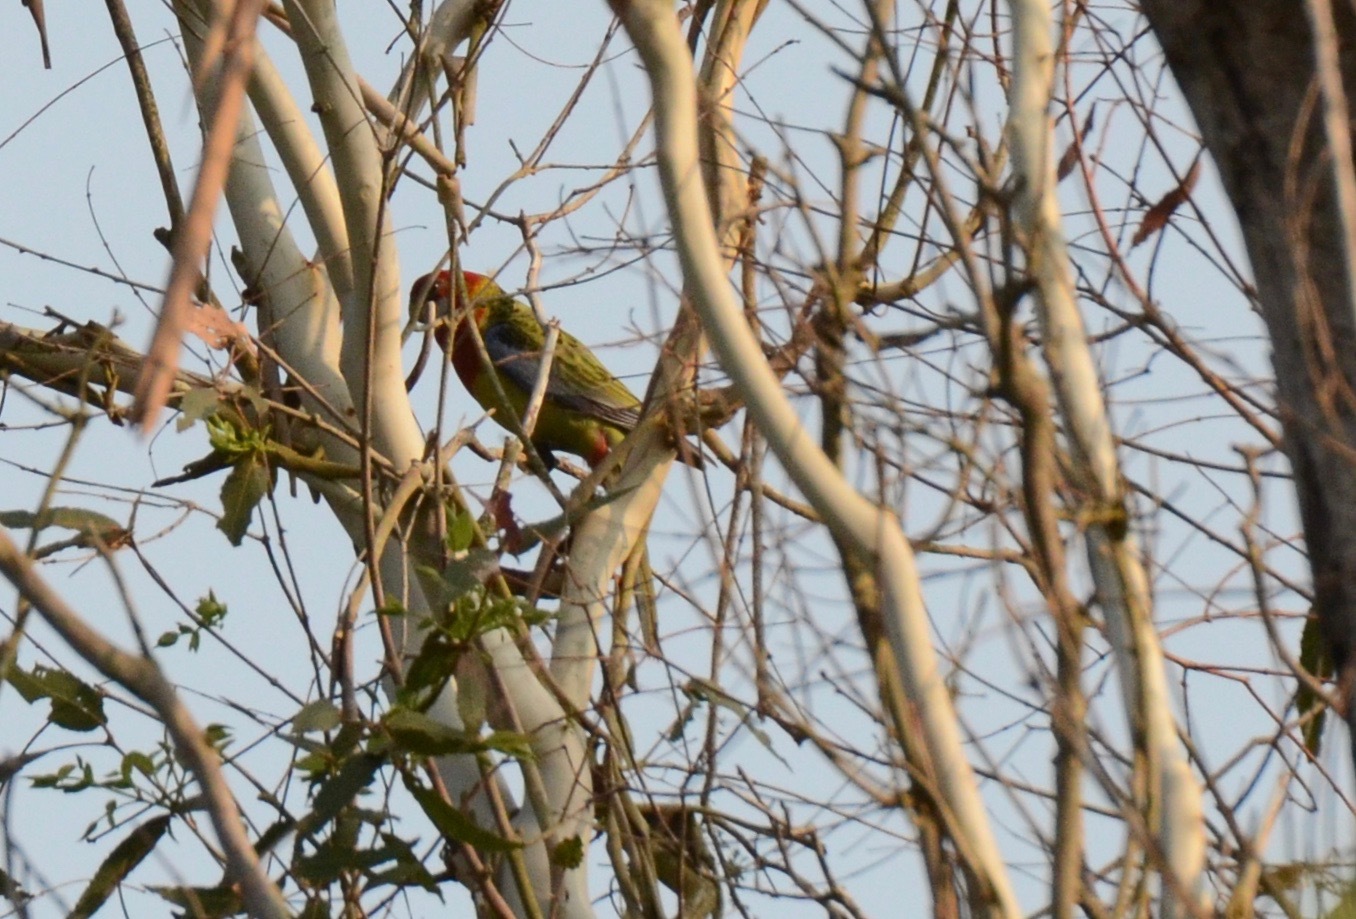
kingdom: Animalia
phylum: Chordata
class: Aves
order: Psittaciformes
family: Psittacidae
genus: Platycercus
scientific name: Platycercus eximius
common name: Eastern rosella
